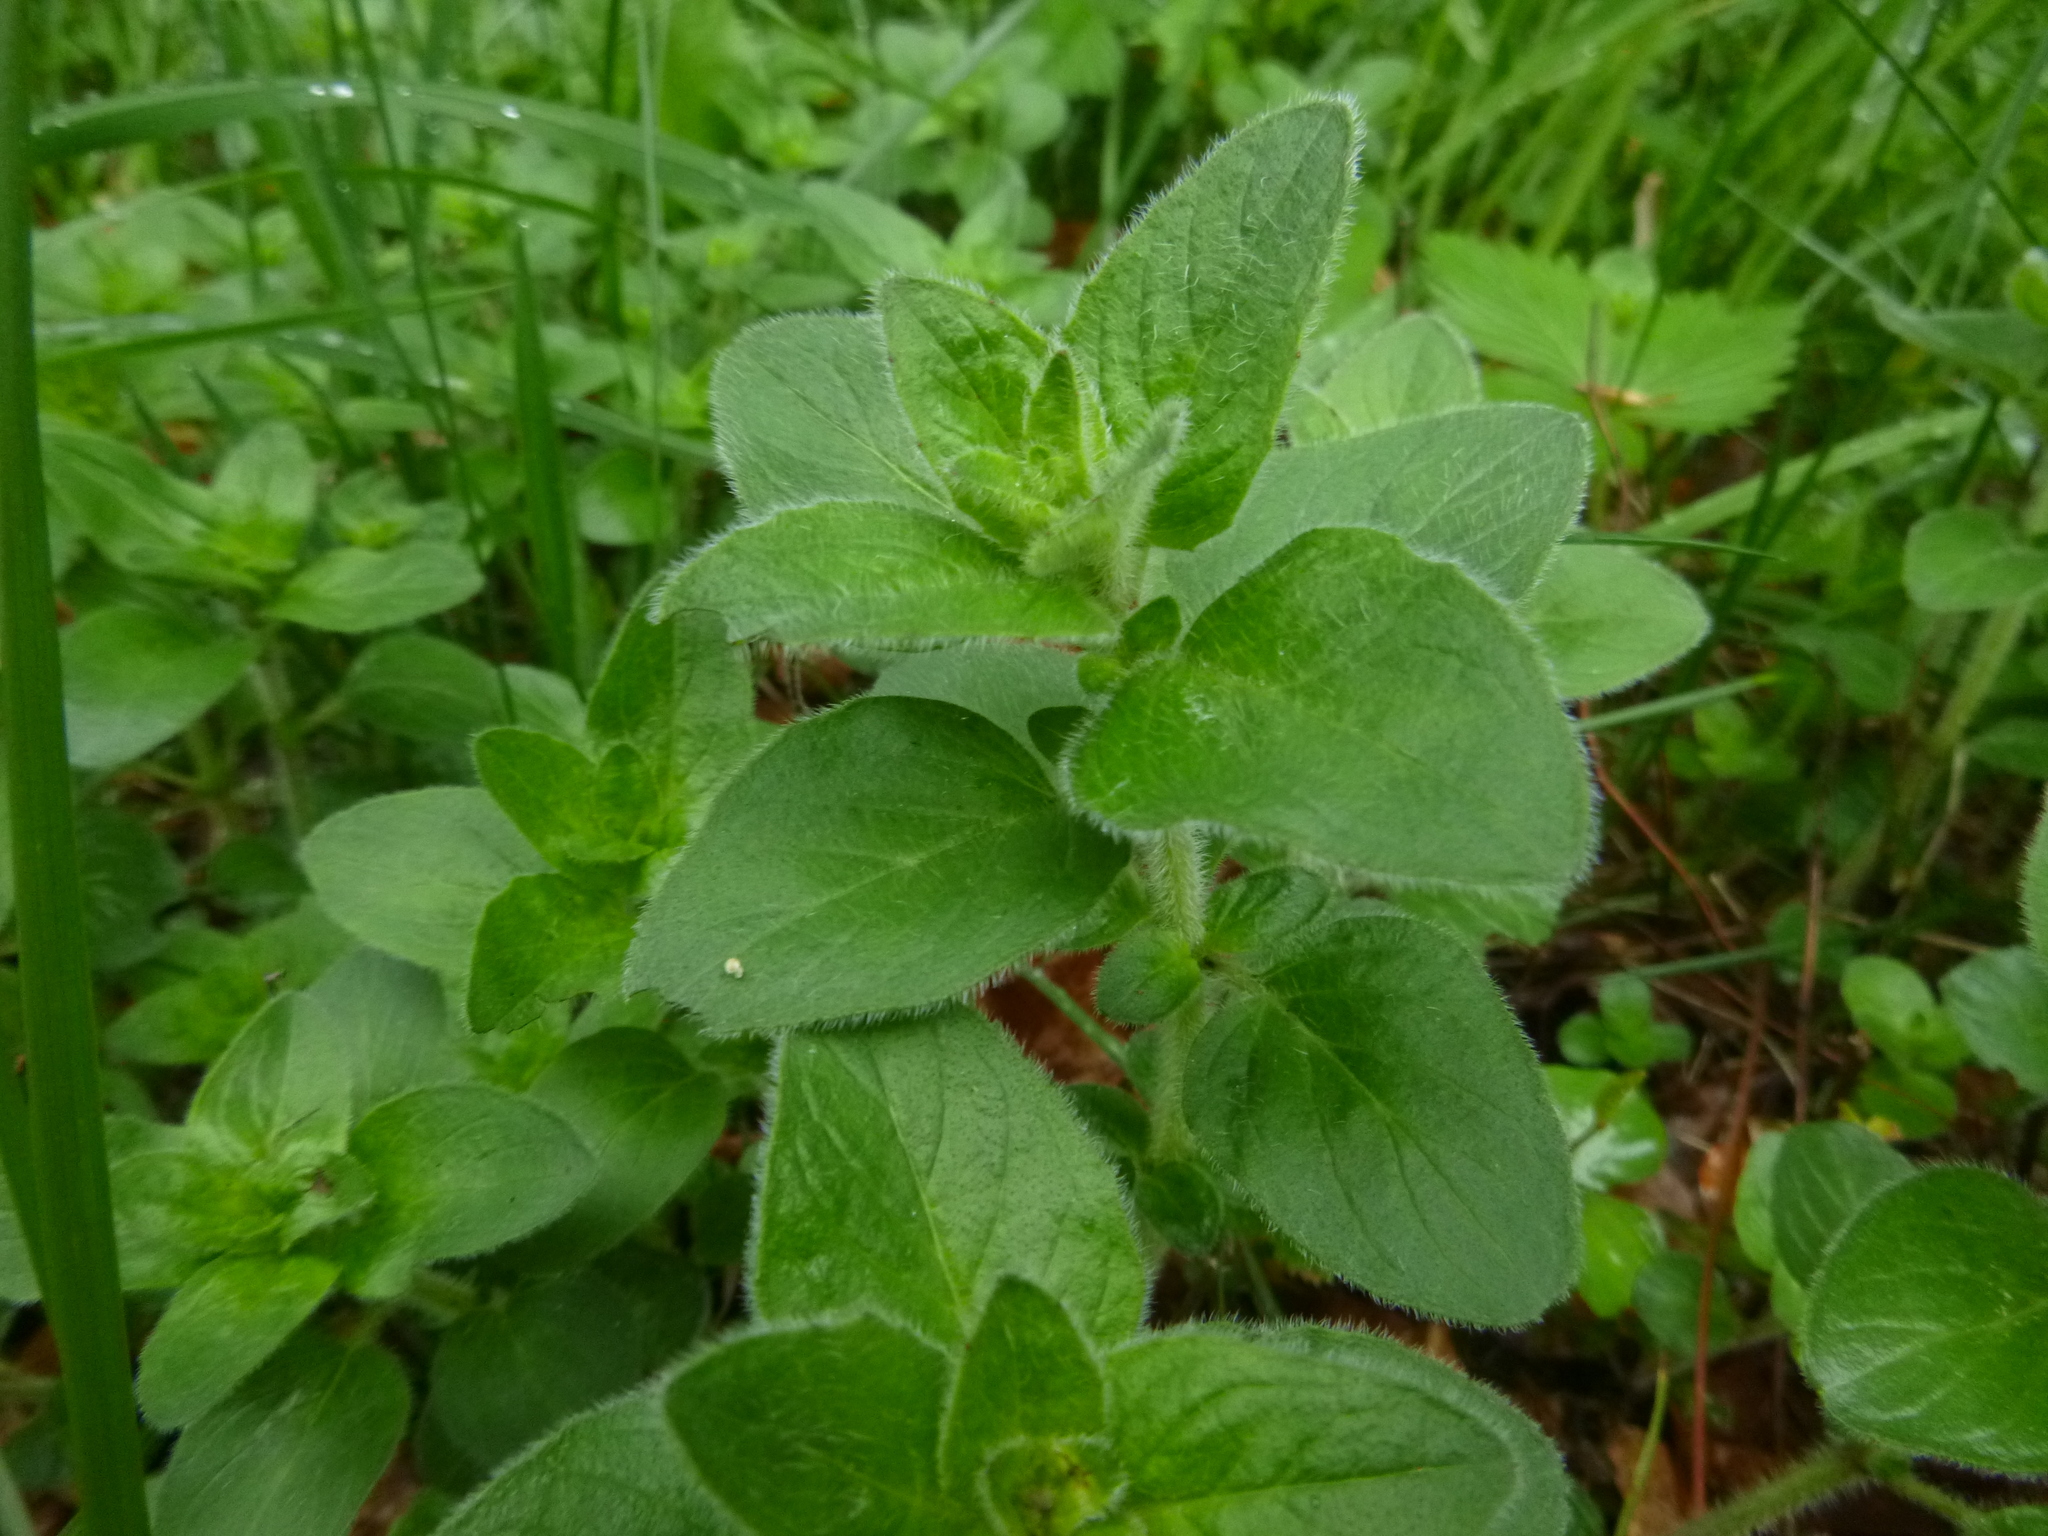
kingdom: Plantae
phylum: Tracheophyta
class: Magnoliopsida
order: Lamiales
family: Lamiaceae
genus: Origanum
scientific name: Origanum vulgare
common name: Wild marjoram
